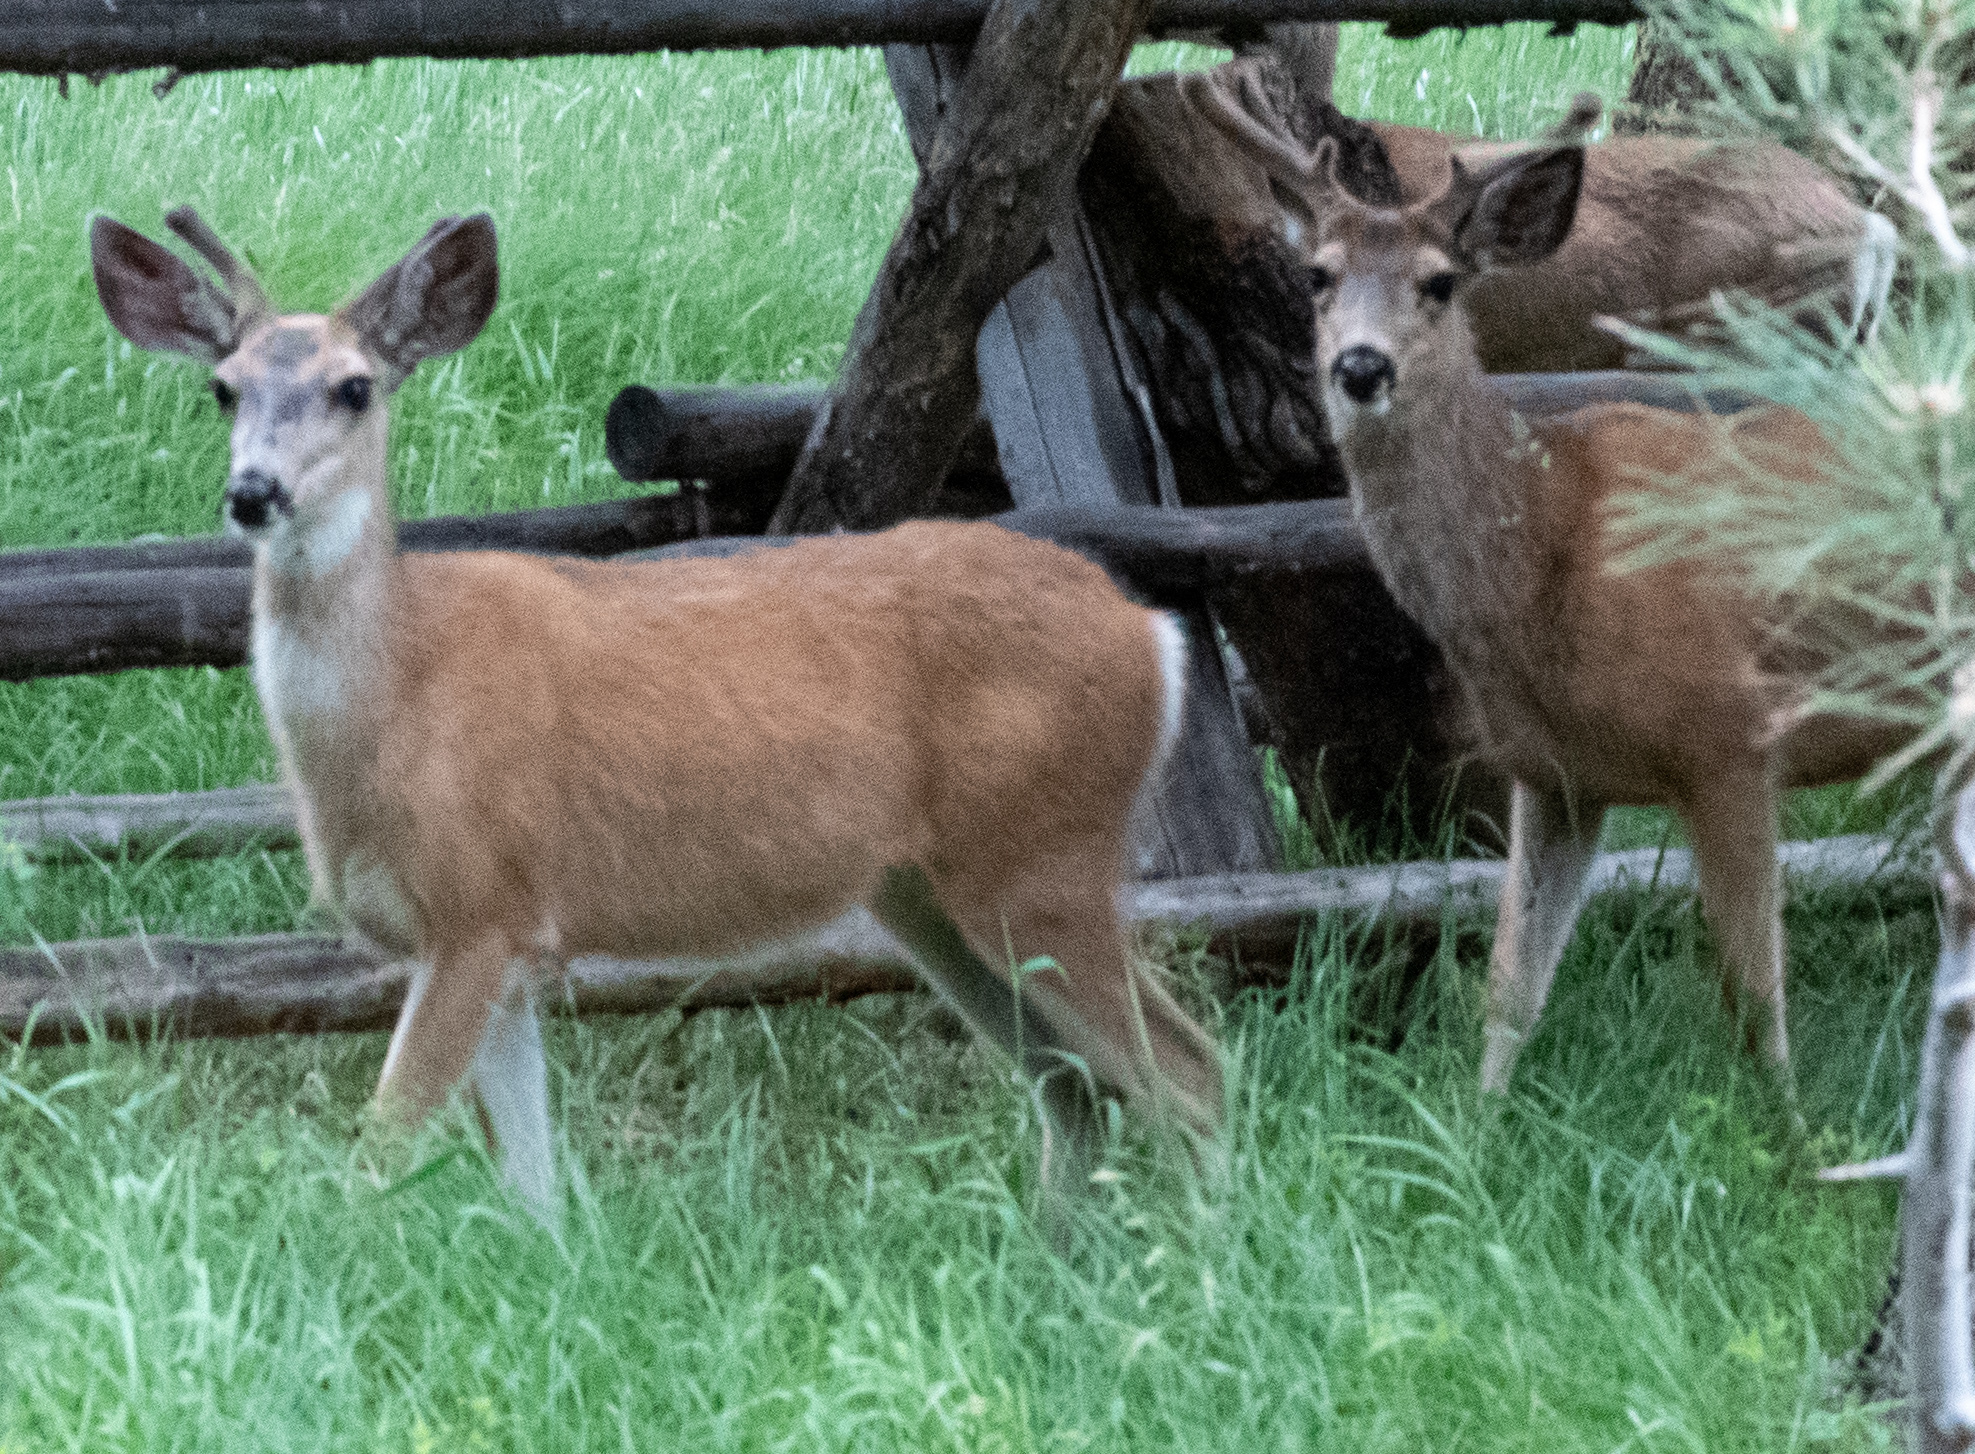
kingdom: Animalia
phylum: Chordata
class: Mammalia
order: Artiodactyla
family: Cervidae
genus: Odocoileus
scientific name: Odocoileus hemionus
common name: Mule deer
